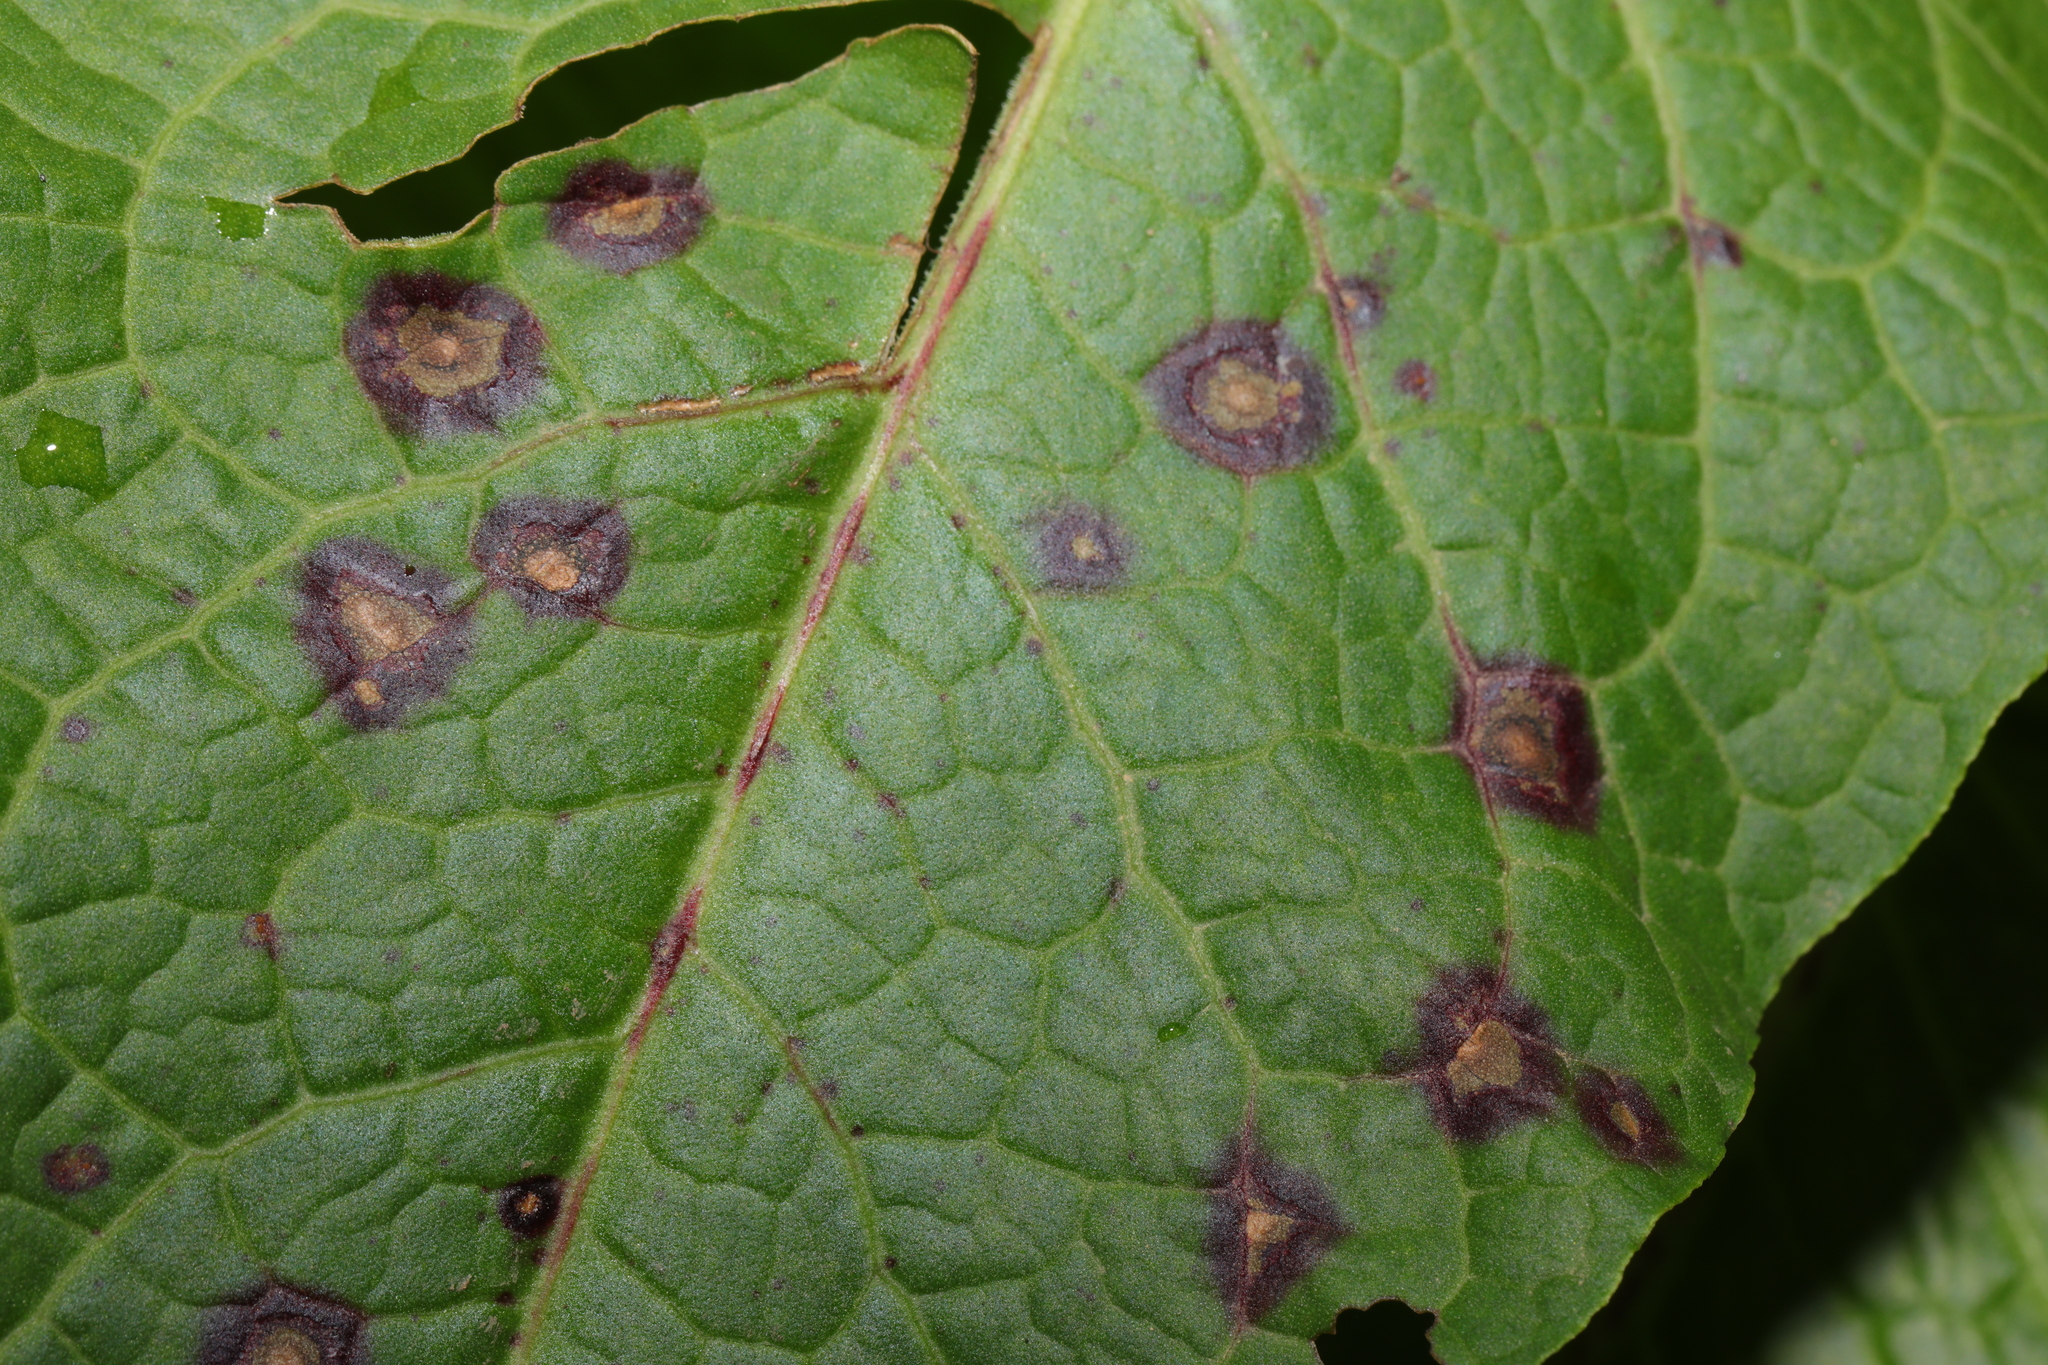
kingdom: Fungi
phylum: Ascomycota
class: Dothideomycetes
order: Mycosphaerellales
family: Mycosphaerellaceae
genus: Ramularia
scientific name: Ramularia rubella
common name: Red dock spot
